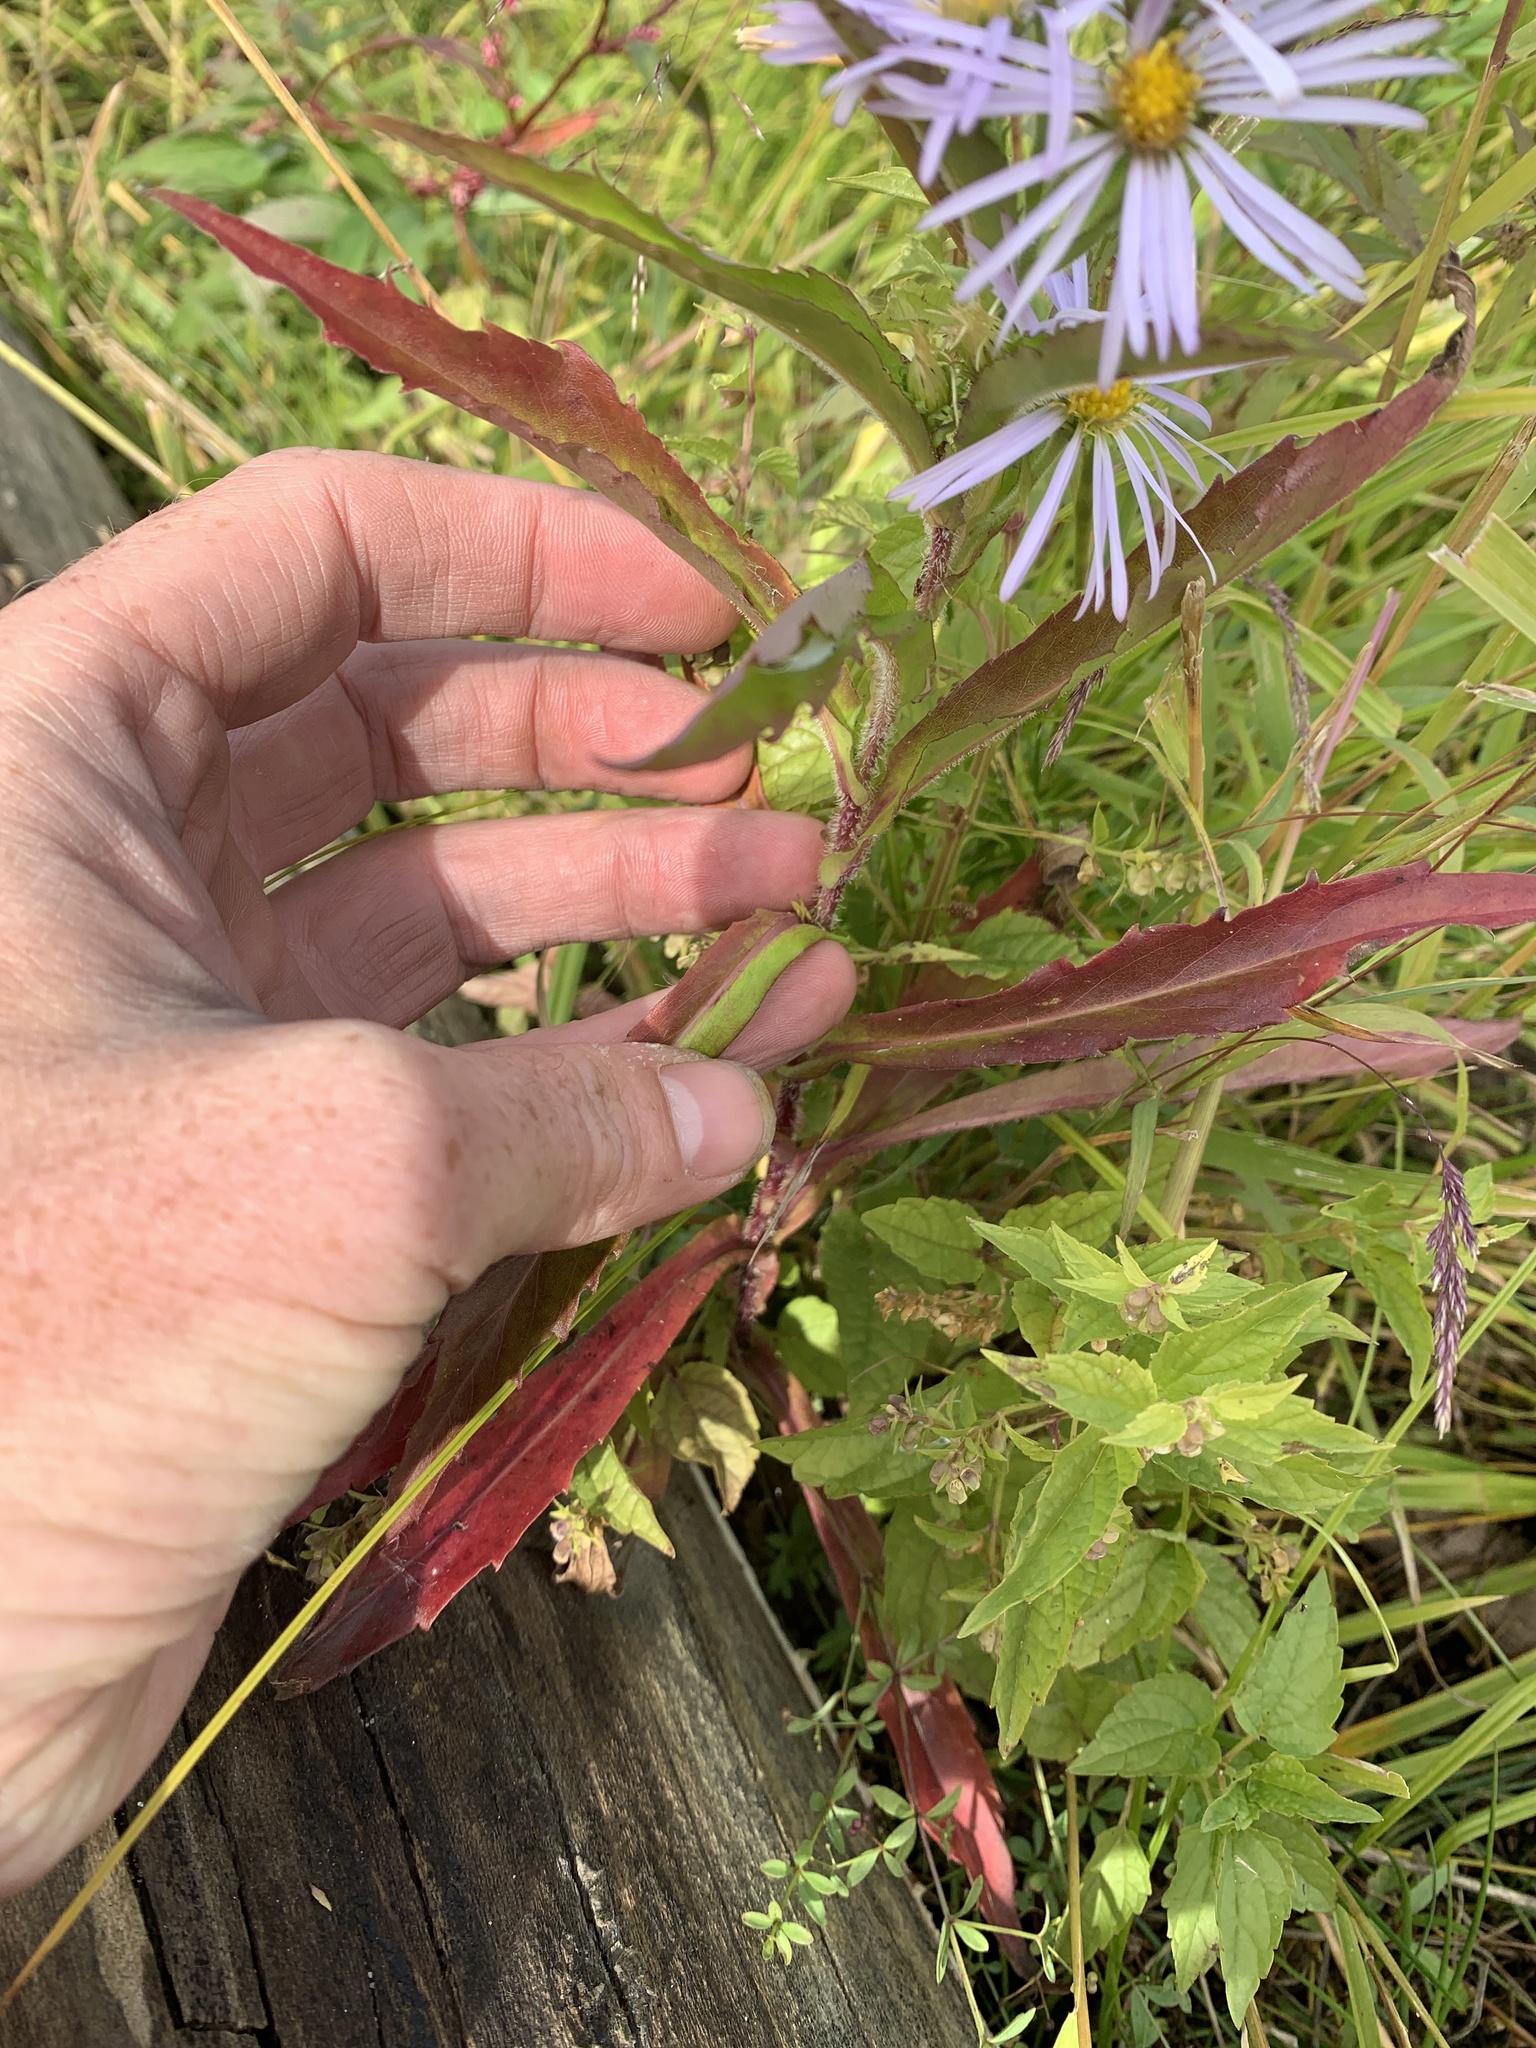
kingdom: Plantae
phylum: Tracheophyta
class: Magnoliopsida
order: Asterales
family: Asteraceae
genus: Symphyotrichum
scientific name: Symphyotrichum puniceum
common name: Bog aster
